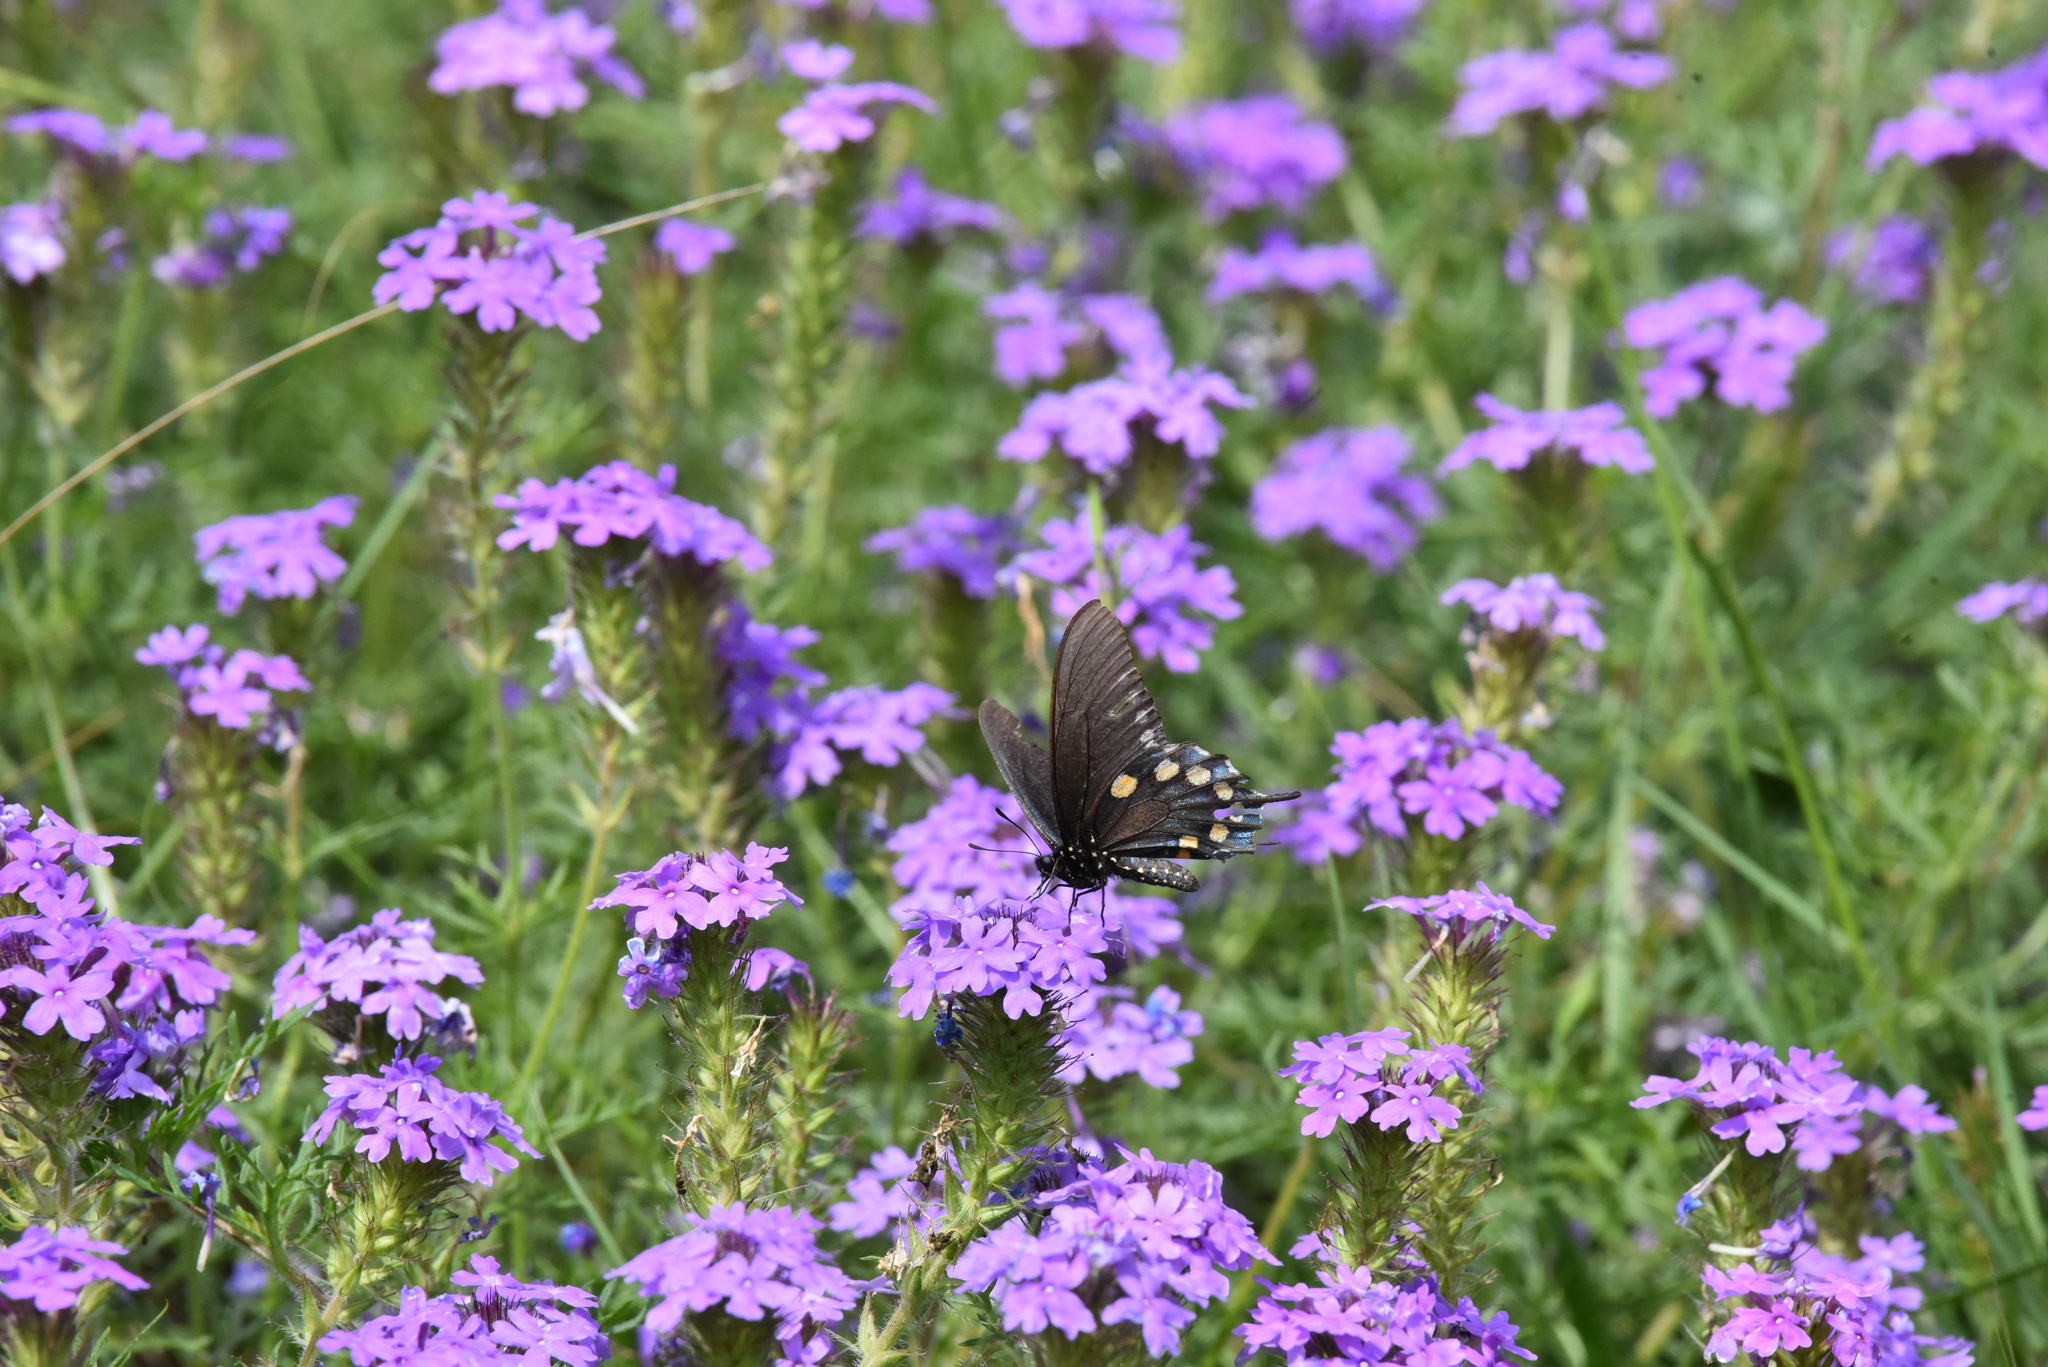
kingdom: Animalia
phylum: Arthropoda
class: Insecta
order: Lepidoptera
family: Papilionidae
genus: Battus
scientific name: Battus philenor
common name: Pipevine swallowtail
